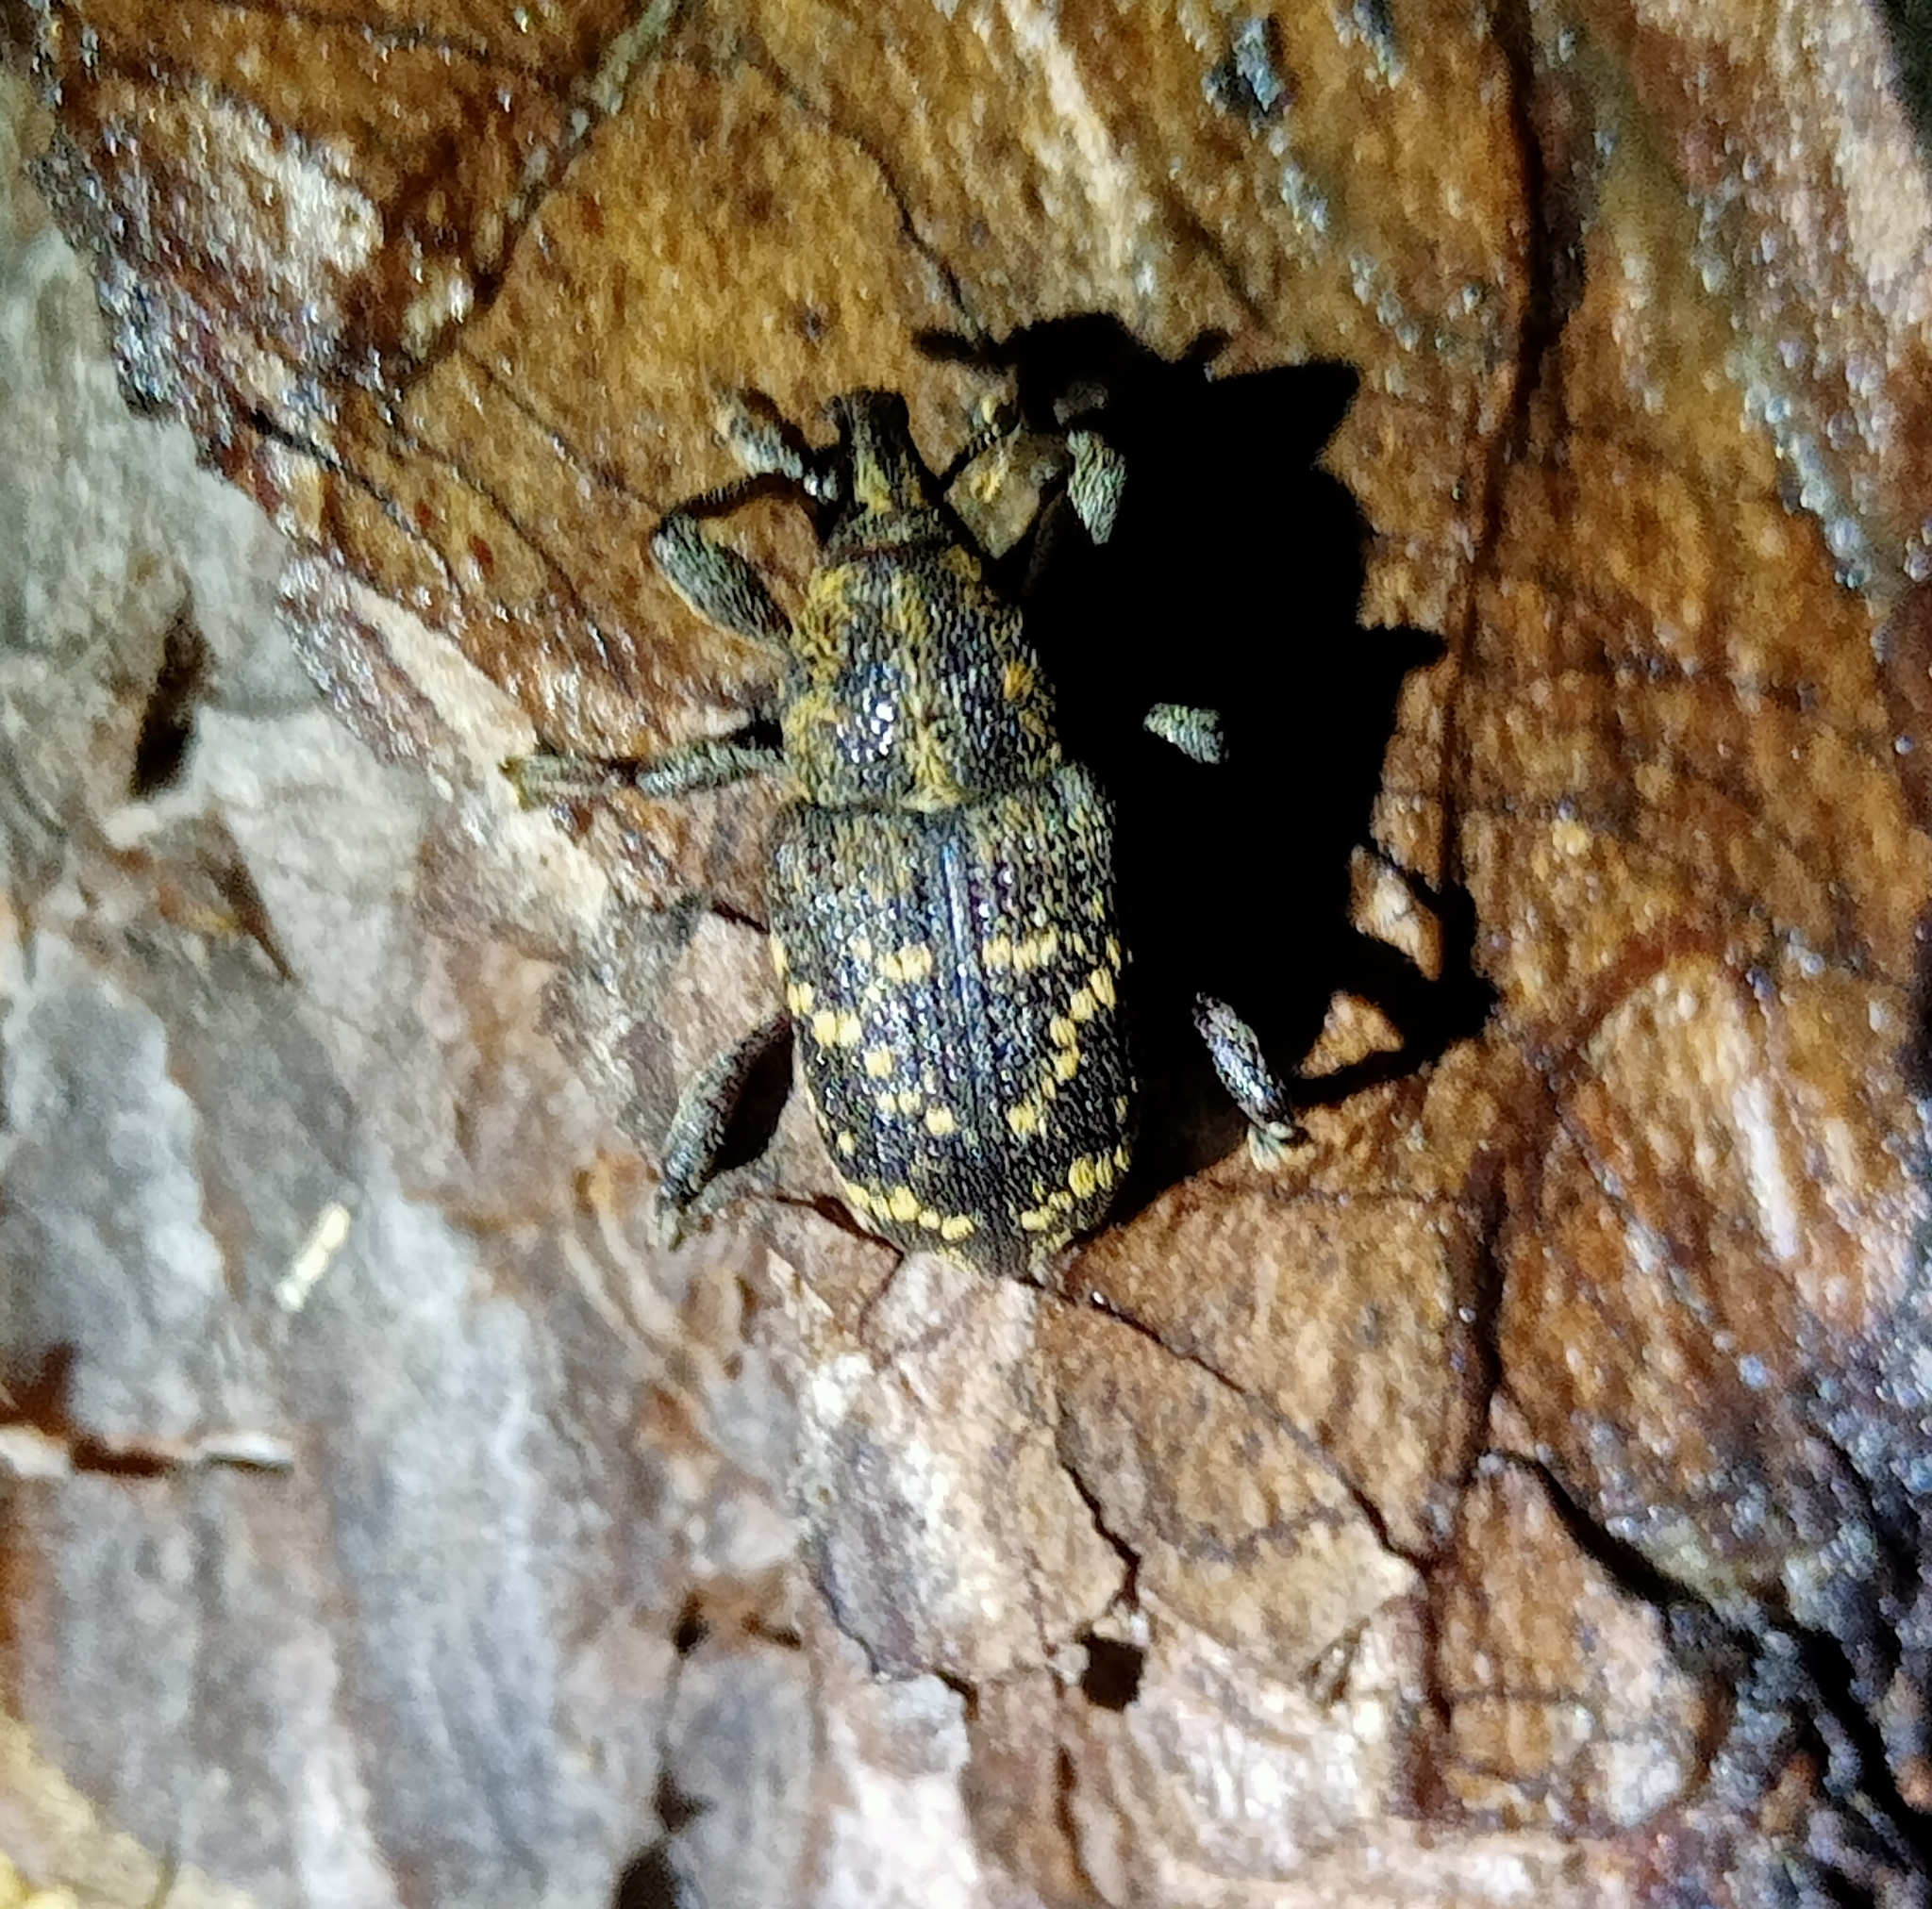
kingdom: Animalia
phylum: Arthropoda
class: Insecta
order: Coleoptera
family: Curculionidae
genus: Hylobius
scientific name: Hylobius abietis
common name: Large pine weevil
